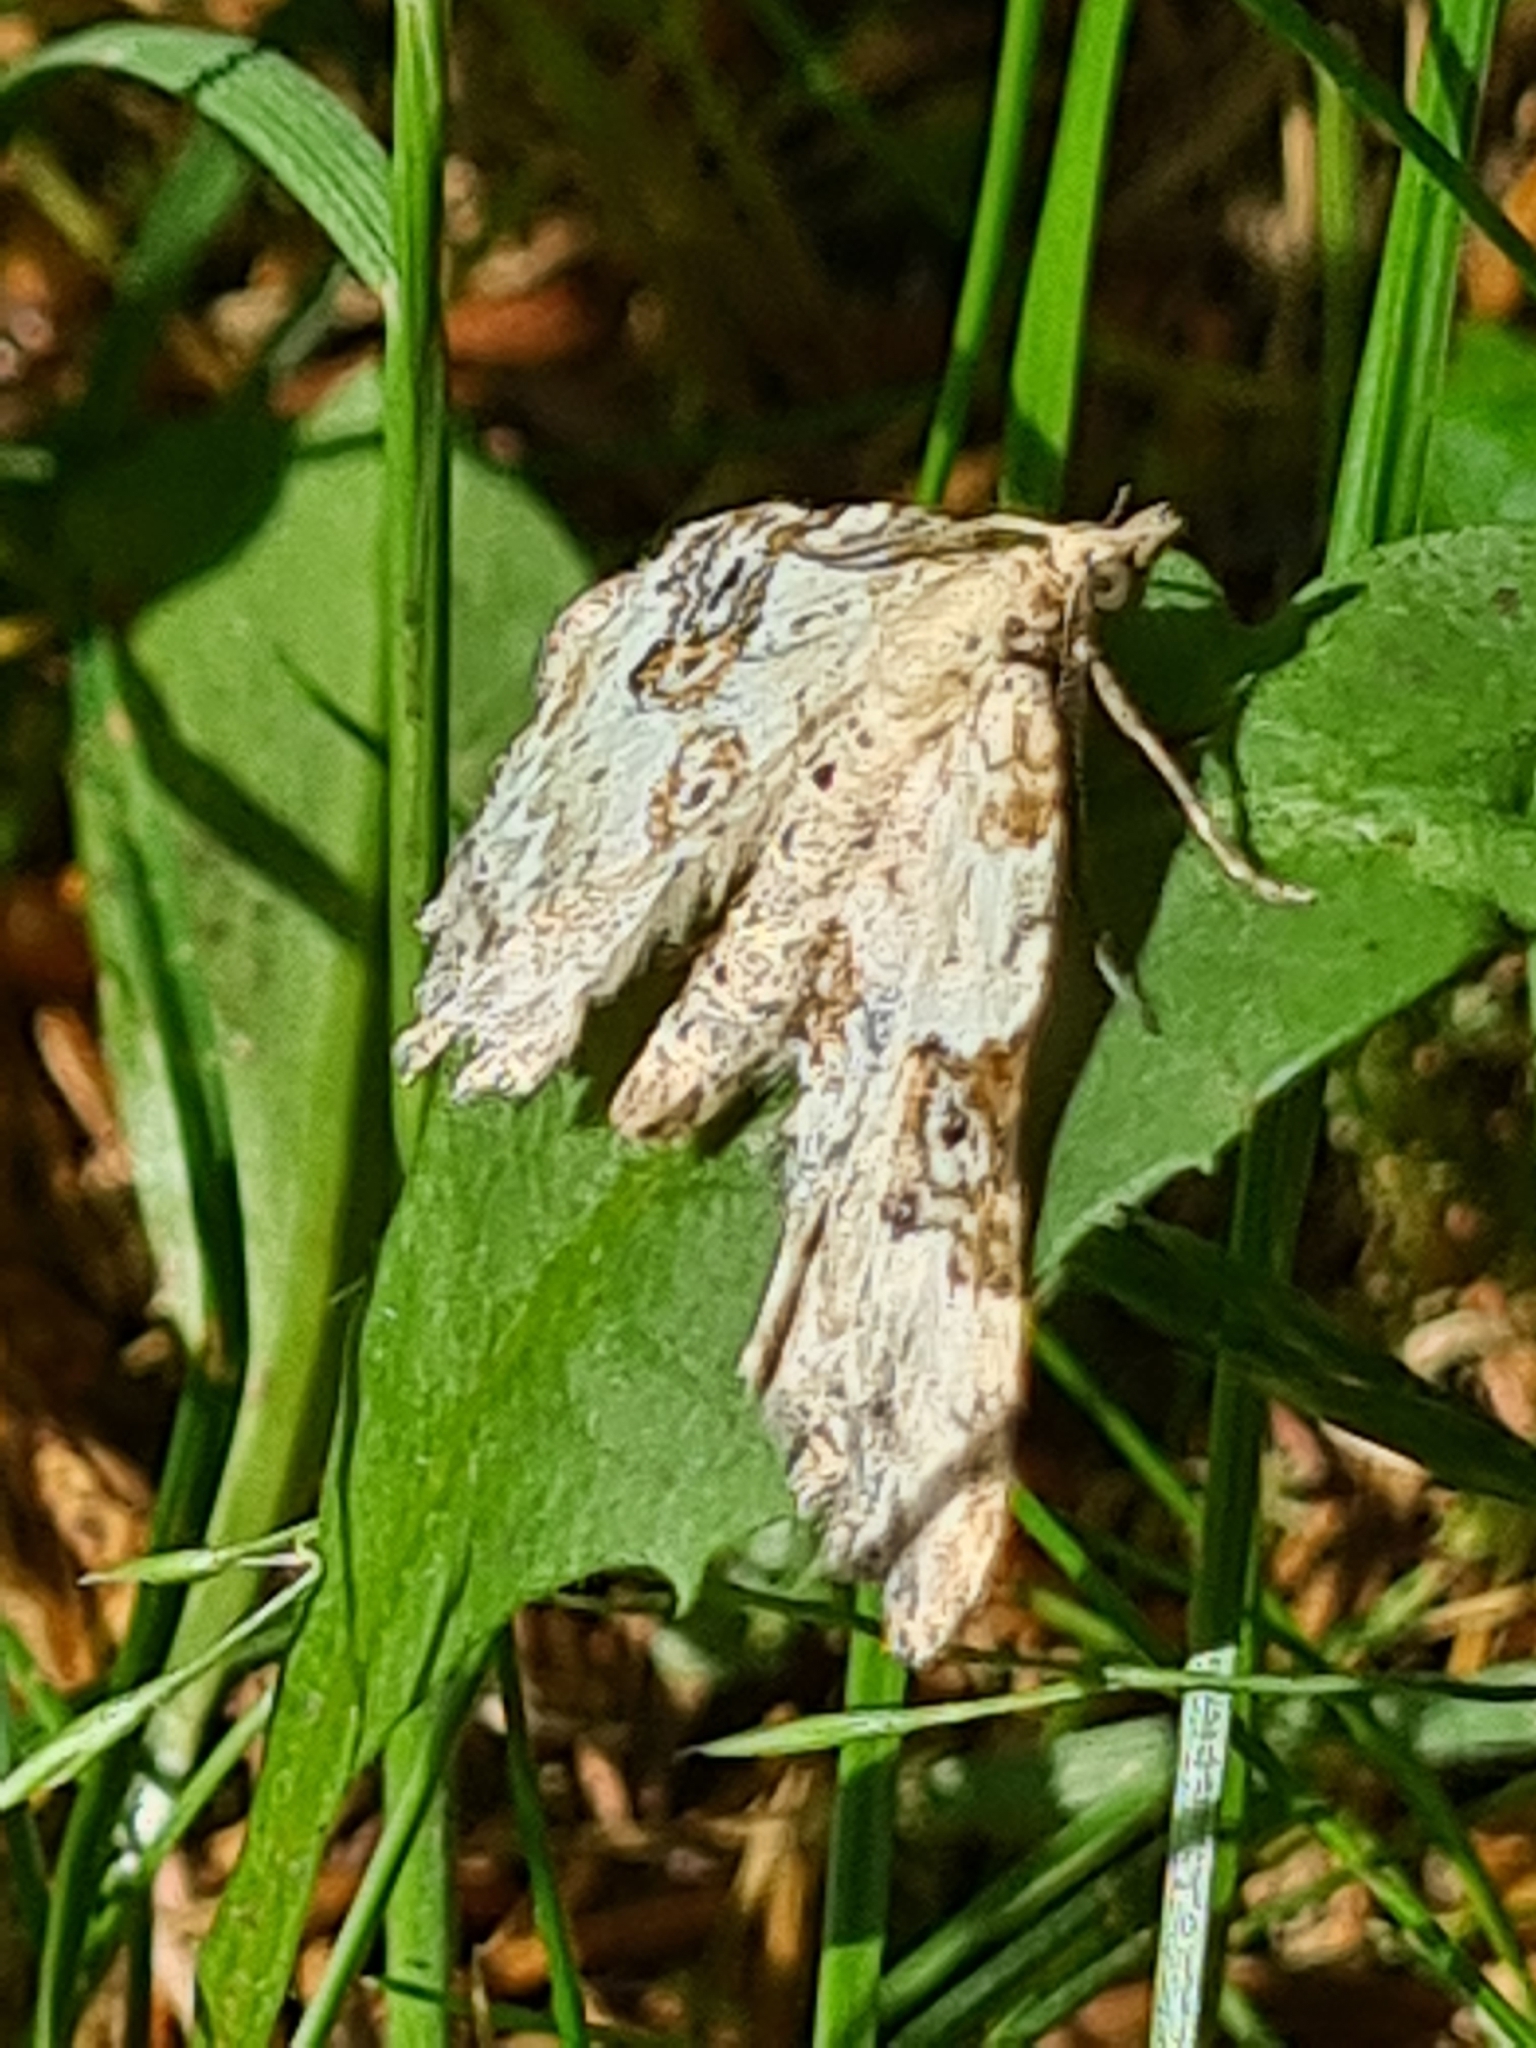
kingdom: Animalia
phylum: Arthropoda
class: Insecta
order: Lepidoptera
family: Geometridae
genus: Xanthorhoe
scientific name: Xanthorhoe montanata
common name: Silver-ground carpet
